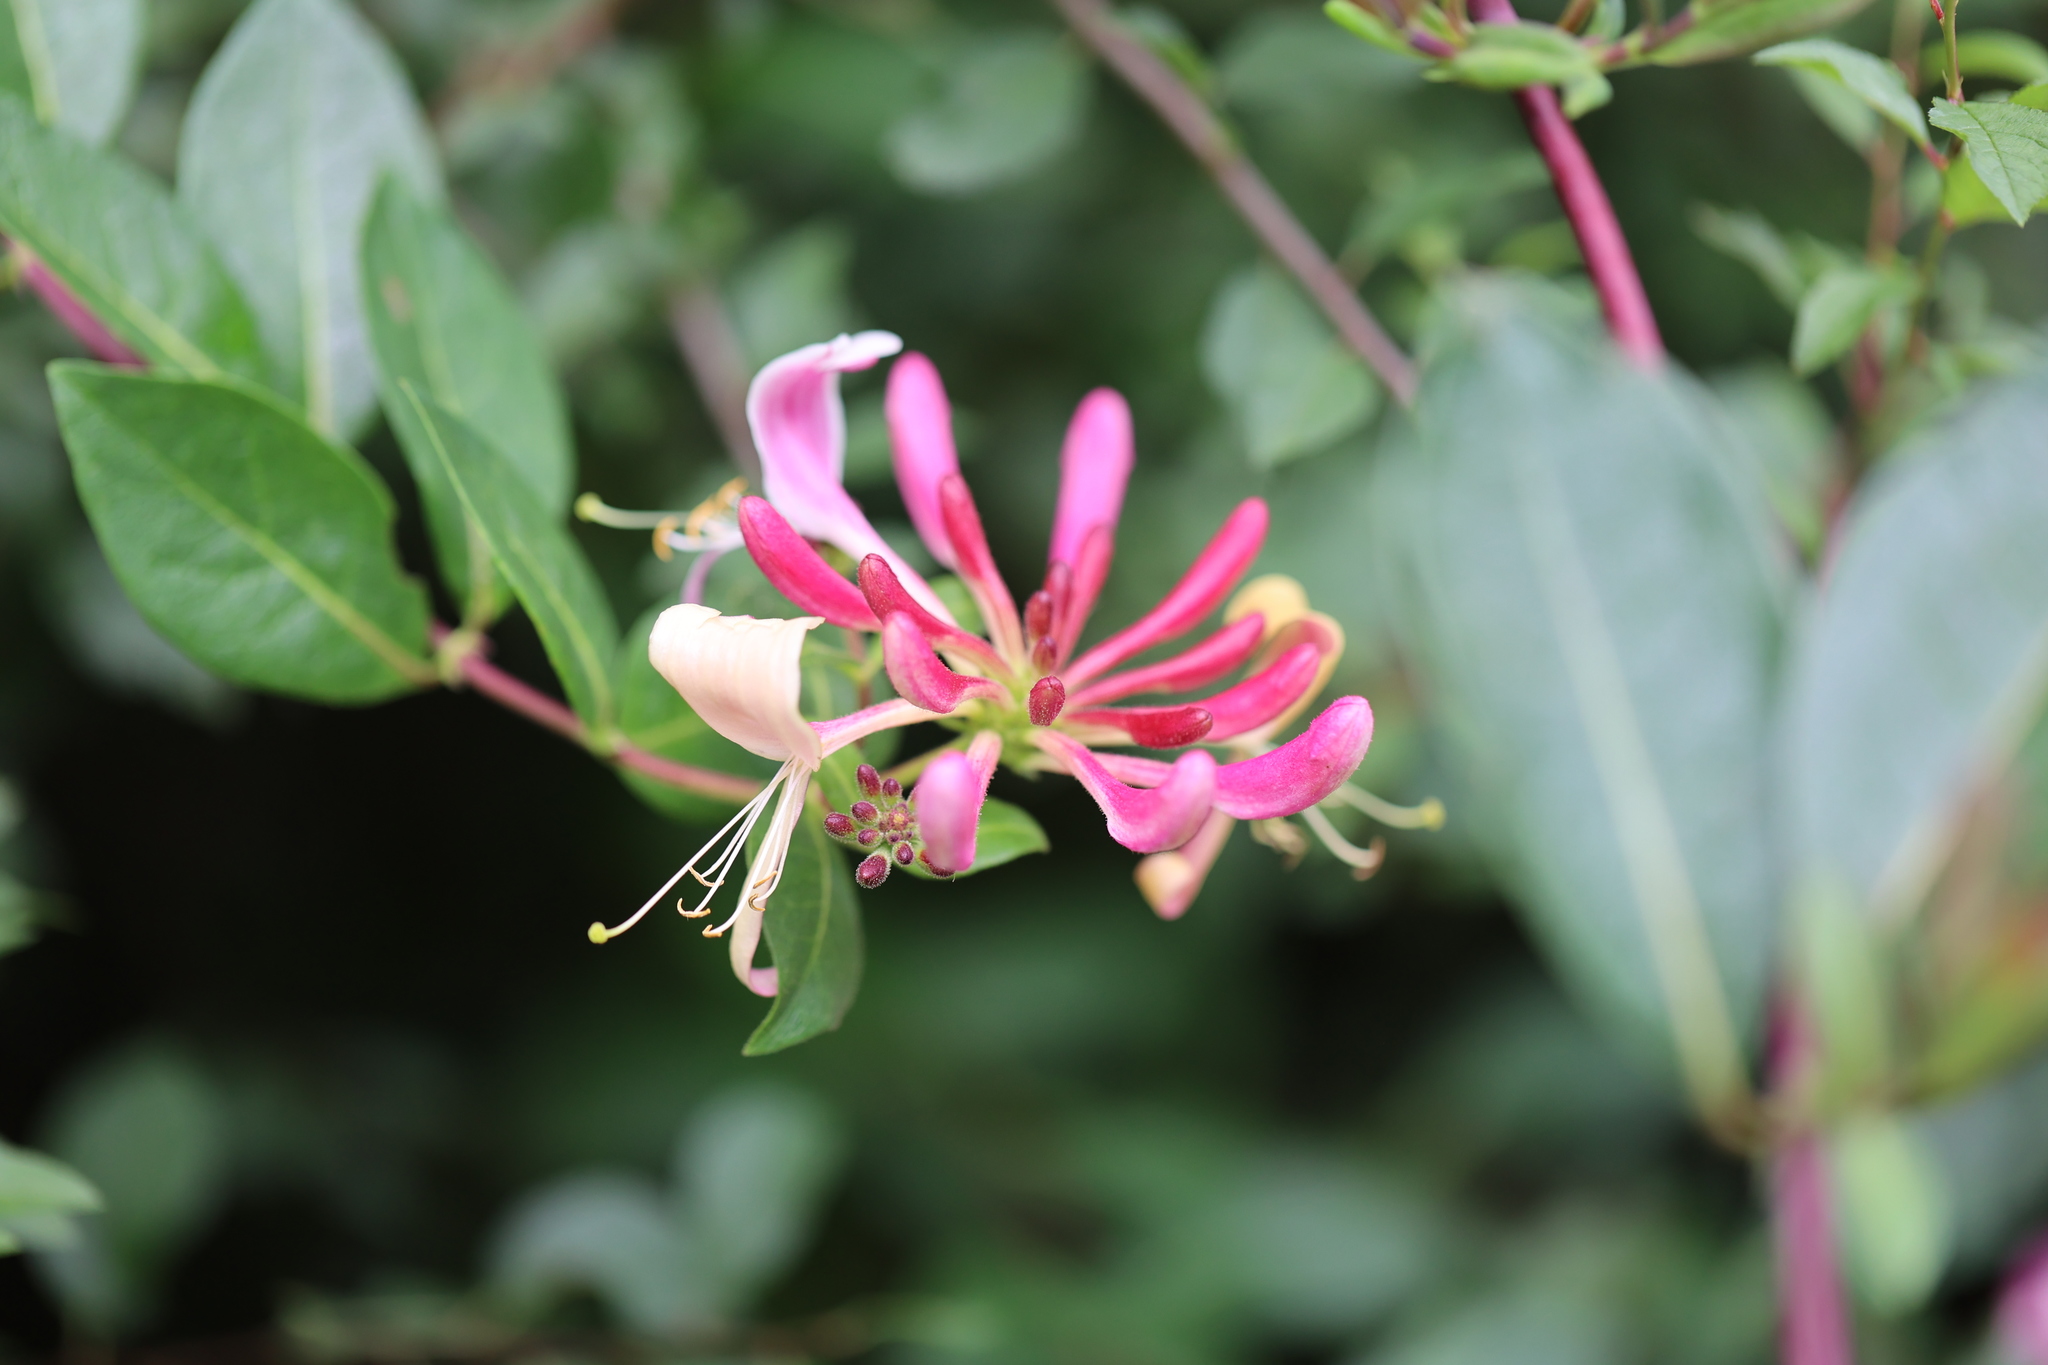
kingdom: Plantae
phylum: Tracheophyta
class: Magnoliopsida
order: Dipsacales
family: Caprifoliaceae
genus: Lonicera
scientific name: Lonicera periclymenum
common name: European honeysuckle
